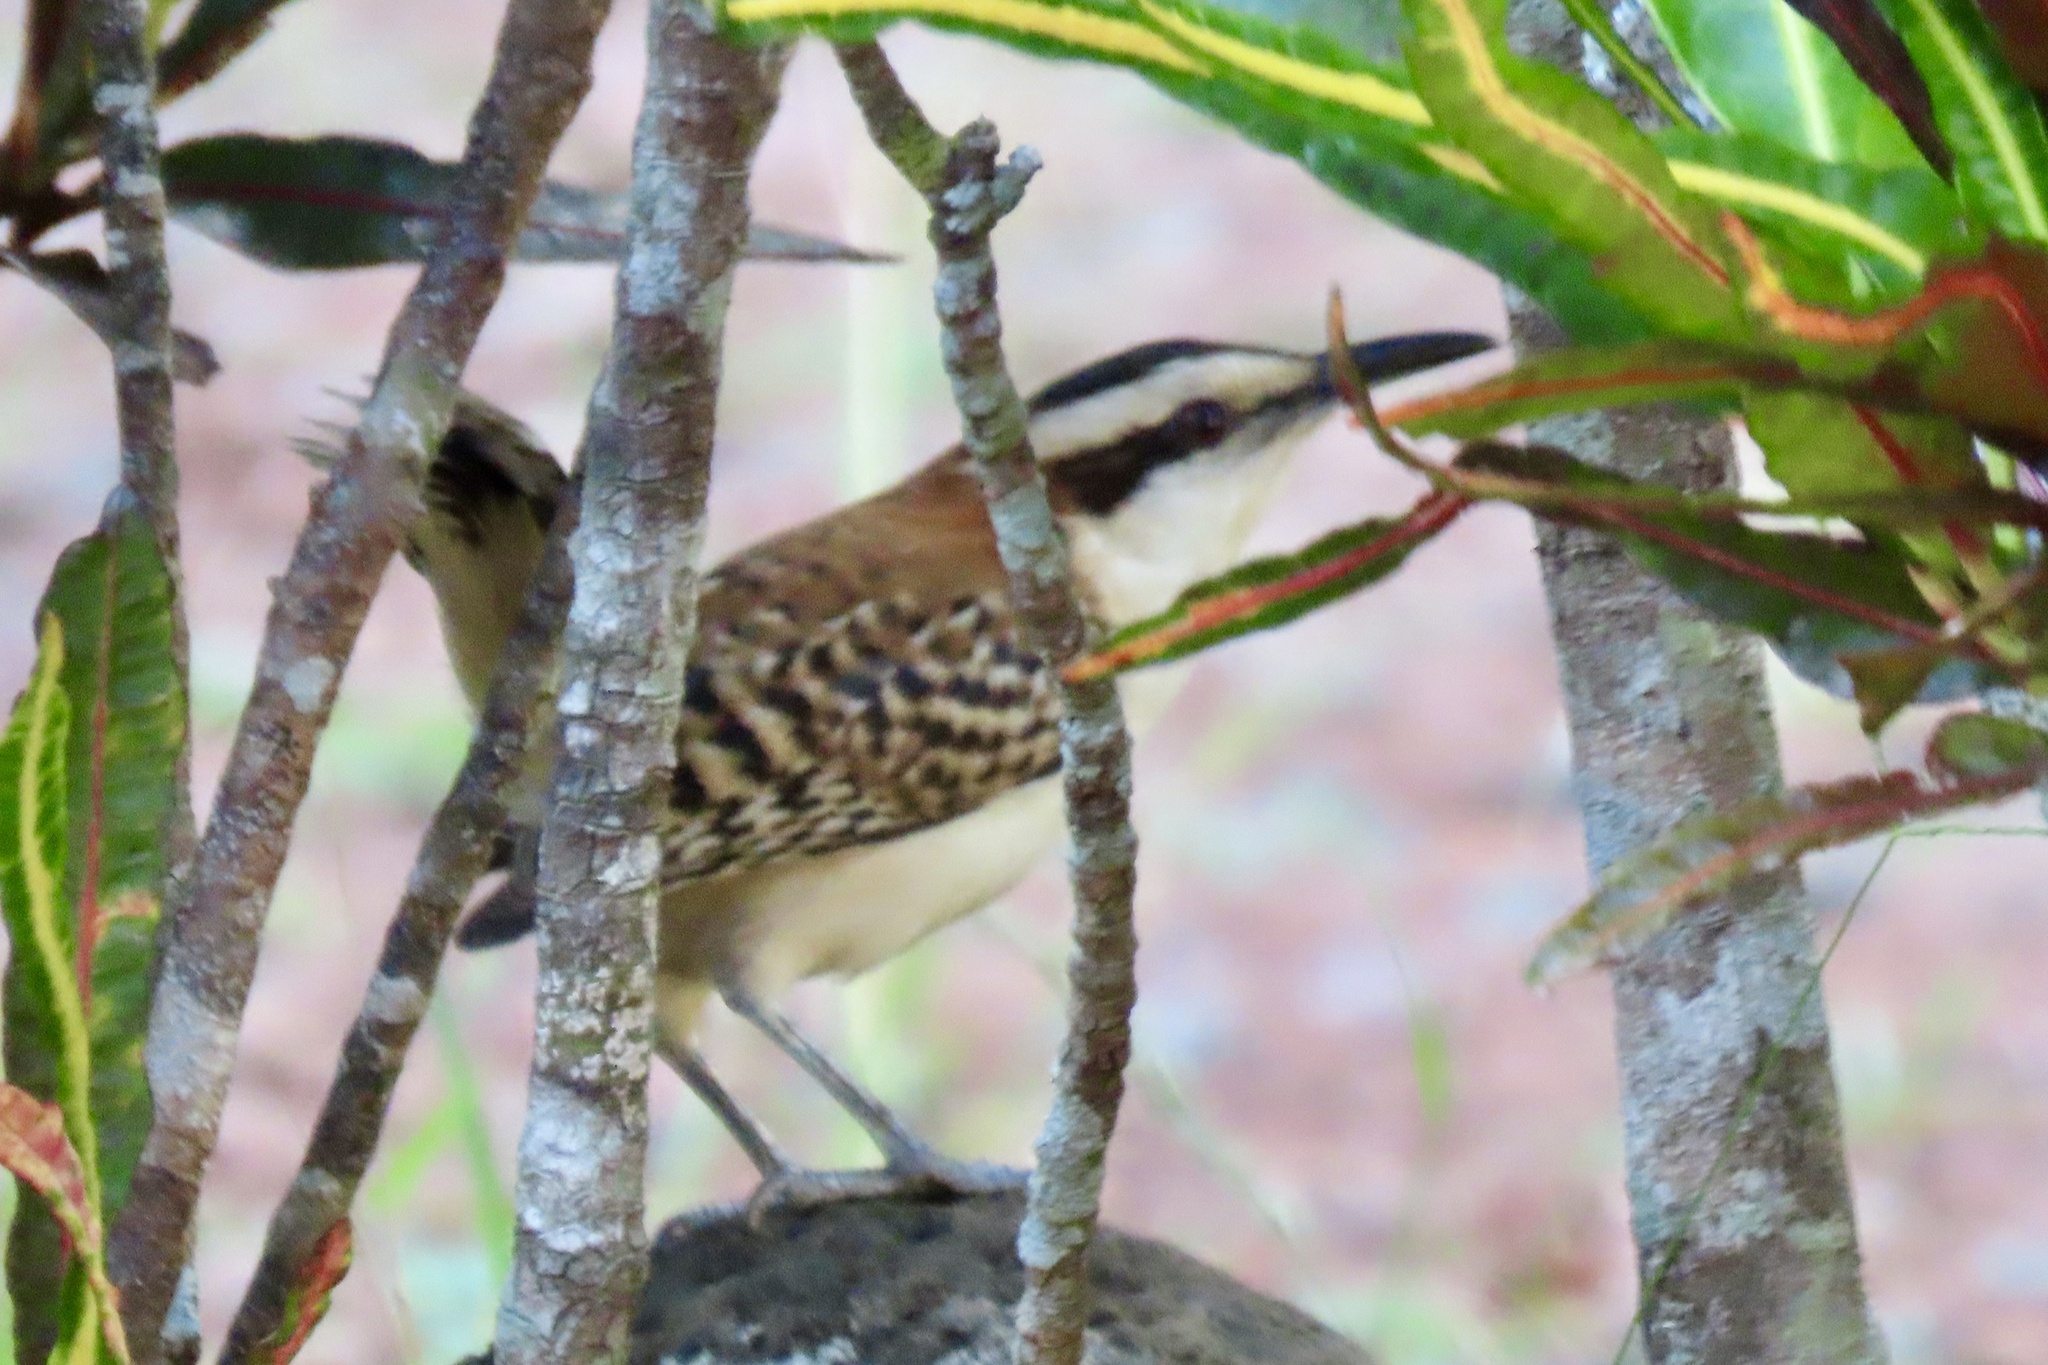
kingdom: Animalia
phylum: Chordata
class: Aves
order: Passeriformes
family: Troglodytidae
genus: Campylorhynchus
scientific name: Campylorhynchus rufinucha
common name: Rufous-naped wren
